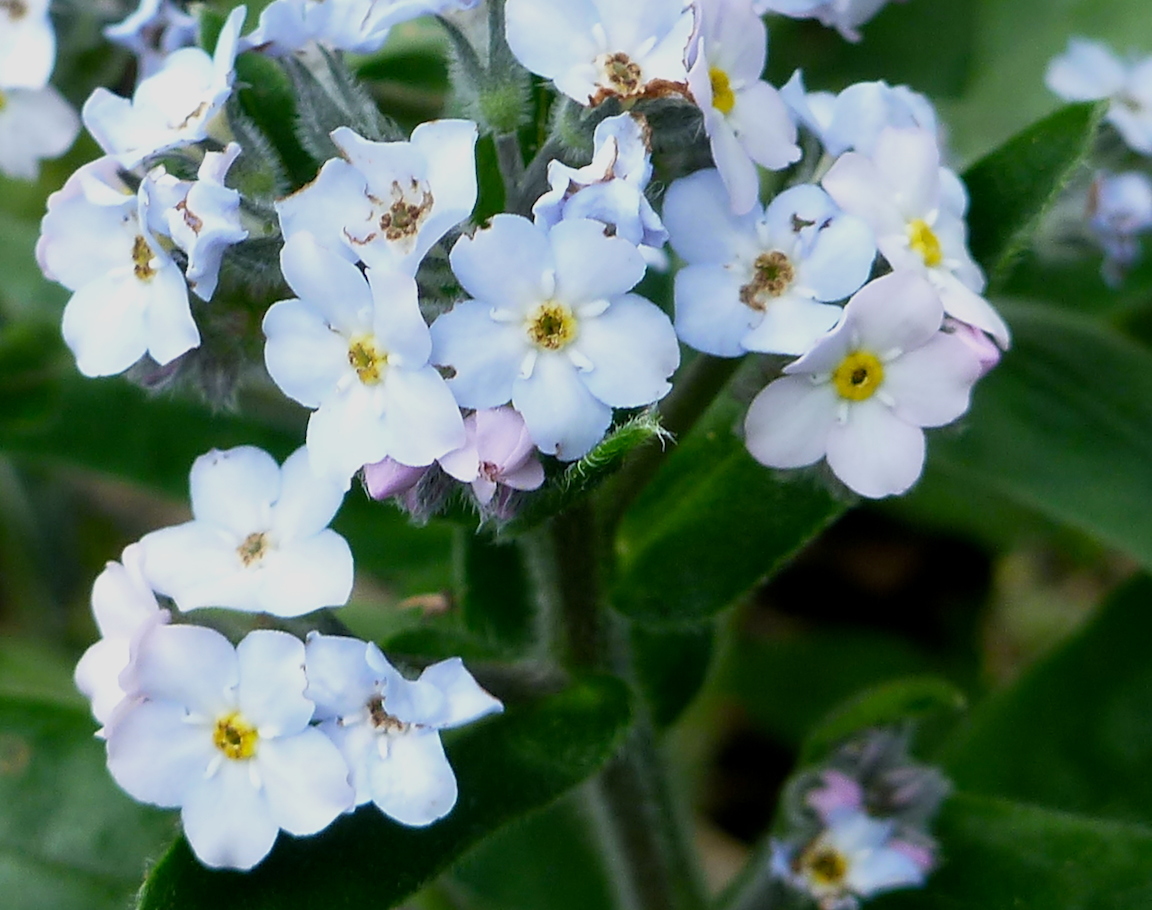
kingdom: Plantae
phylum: Tracheophyta
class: Magnoliopsida
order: Boraginales
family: Boraginaceae
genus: Myosotis
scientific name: Myosotis latifolia
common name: Broadleaf forget-me-not
